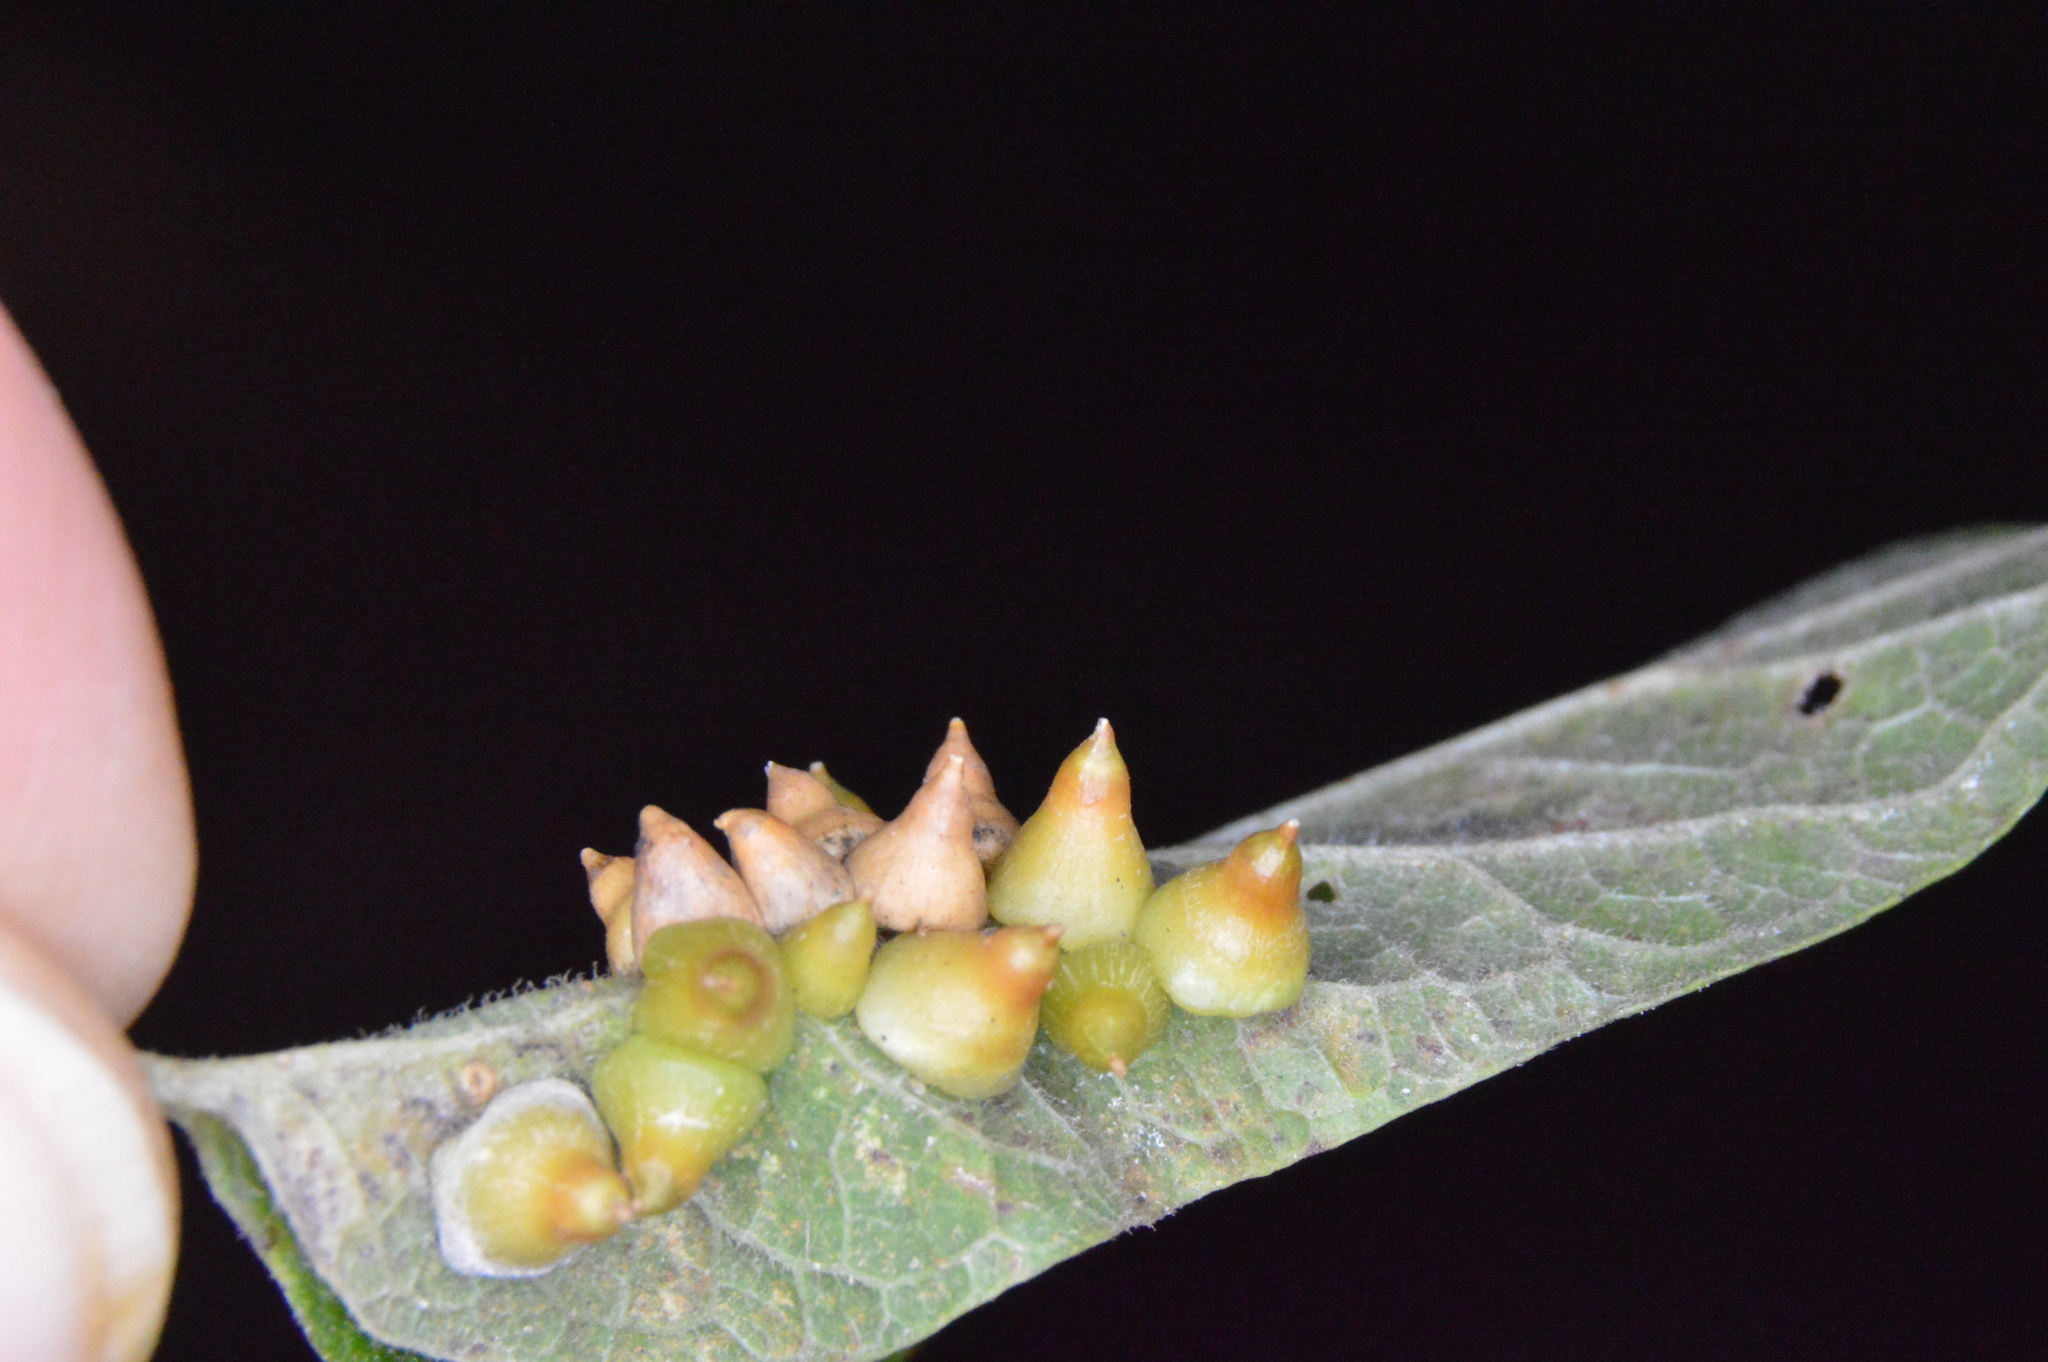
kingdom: Animalia
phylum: Arthropoda
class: Insecta
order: Diptera
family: Cecidomyiidae
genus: Celticecis
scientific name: Celticecis spiniformis
